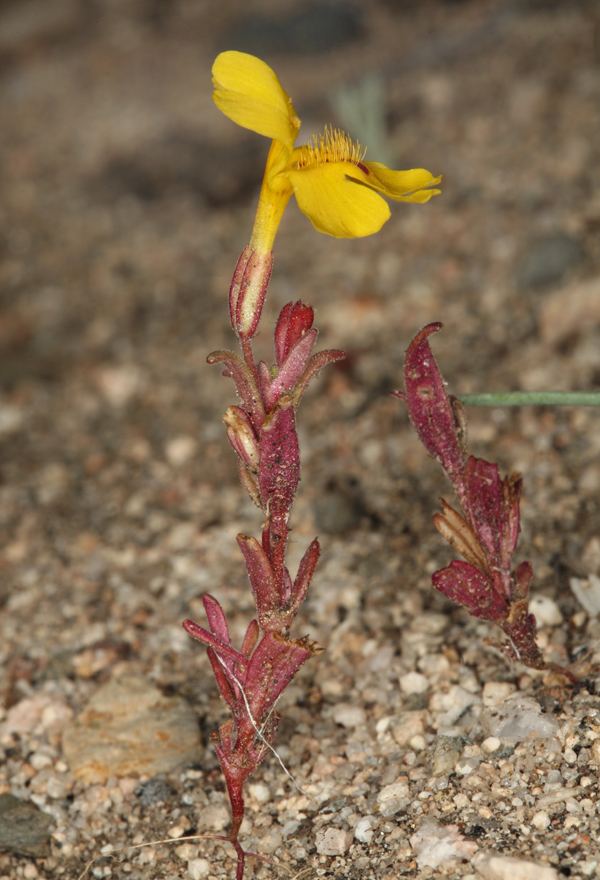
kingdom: Plantae
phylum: Tracheophyta
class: Magnoliopsida
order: Lamiales
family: Phrymaceae
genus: Erythranthe
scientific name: Erythranthe carsonensis
